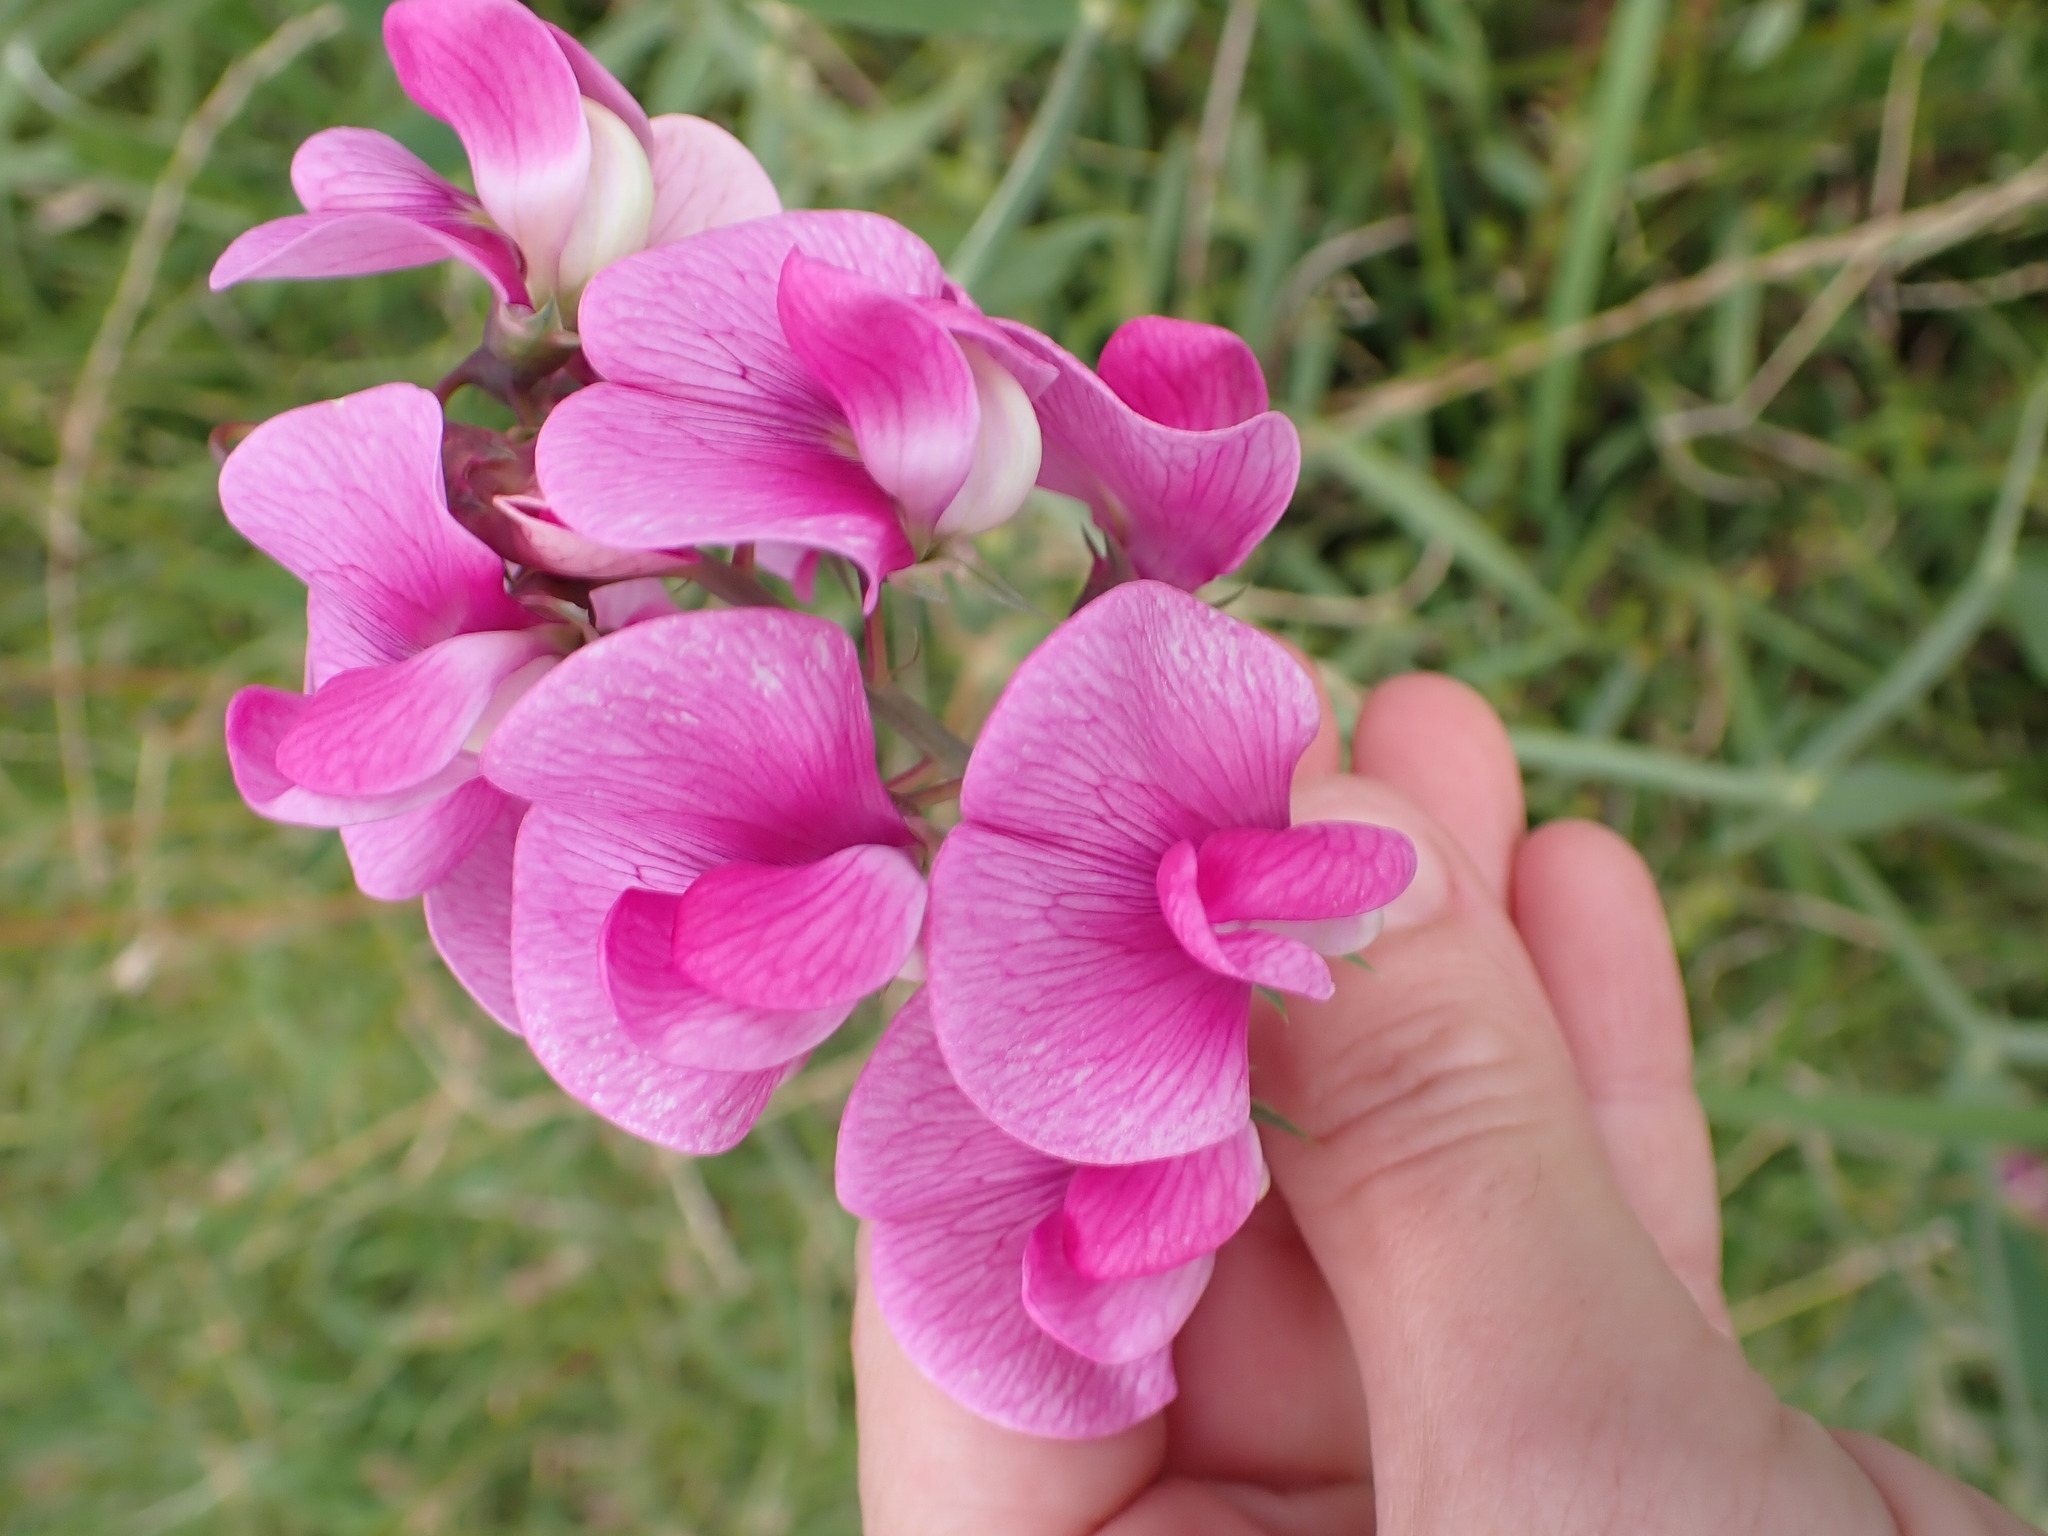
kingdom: Plantae
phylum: Tracheophyta
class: Magnoliopsida
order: Fabales
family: Fabaceae
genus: Lathyrus
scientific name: Lathyrus latifolius
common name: Perennial pea
